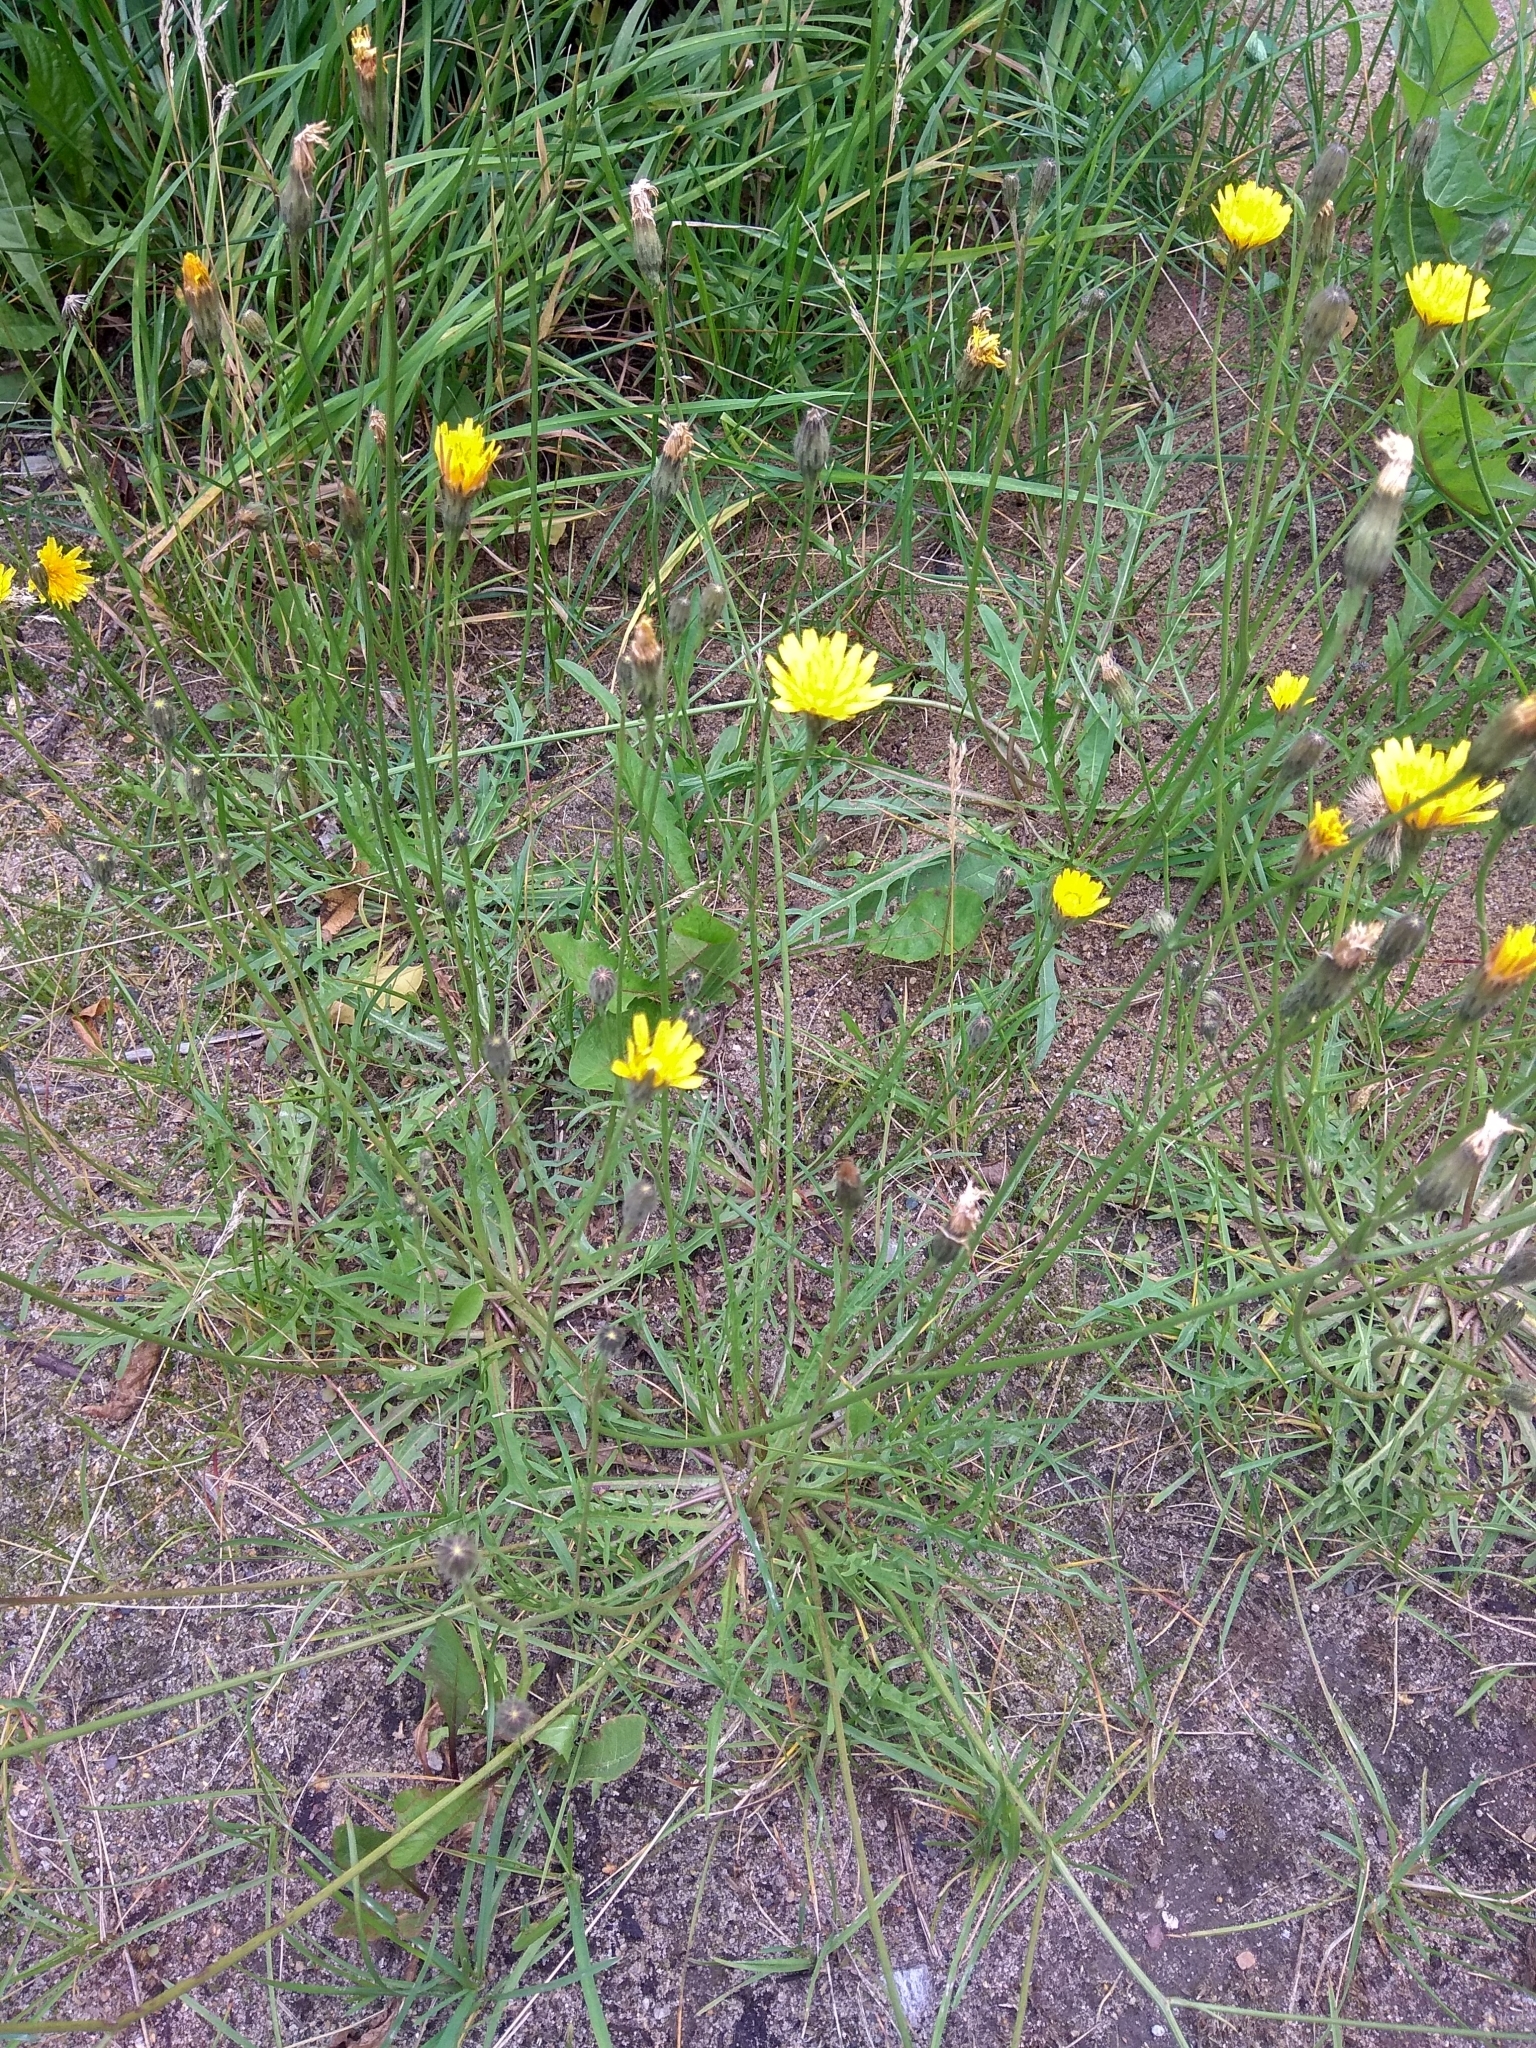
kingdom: Plantae
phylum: Tracheophyta
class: Magnoliopsida
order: Asterales
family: Asteraceae
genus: Scorzoneroides
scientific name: Scorzoneroides autumnalis
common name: Autumn hawkbit
